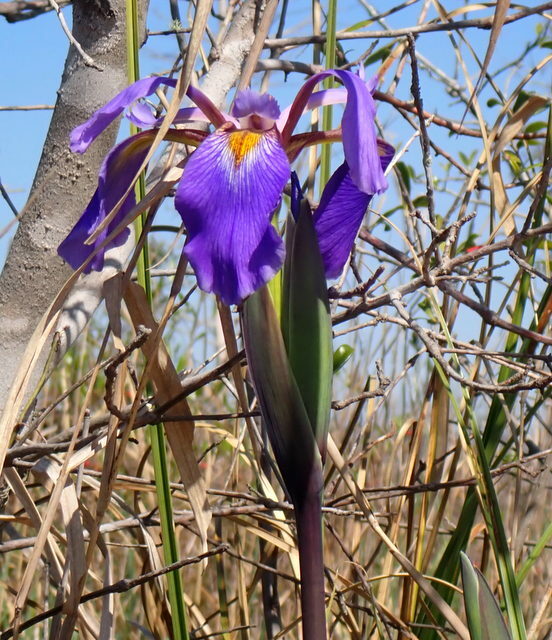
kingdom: Plantae
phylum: Tracheophyta
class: Liliopsida
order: Asparagales
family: Iridaceae
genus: Iris
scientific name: Iris virginica
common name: Southern blue flag
